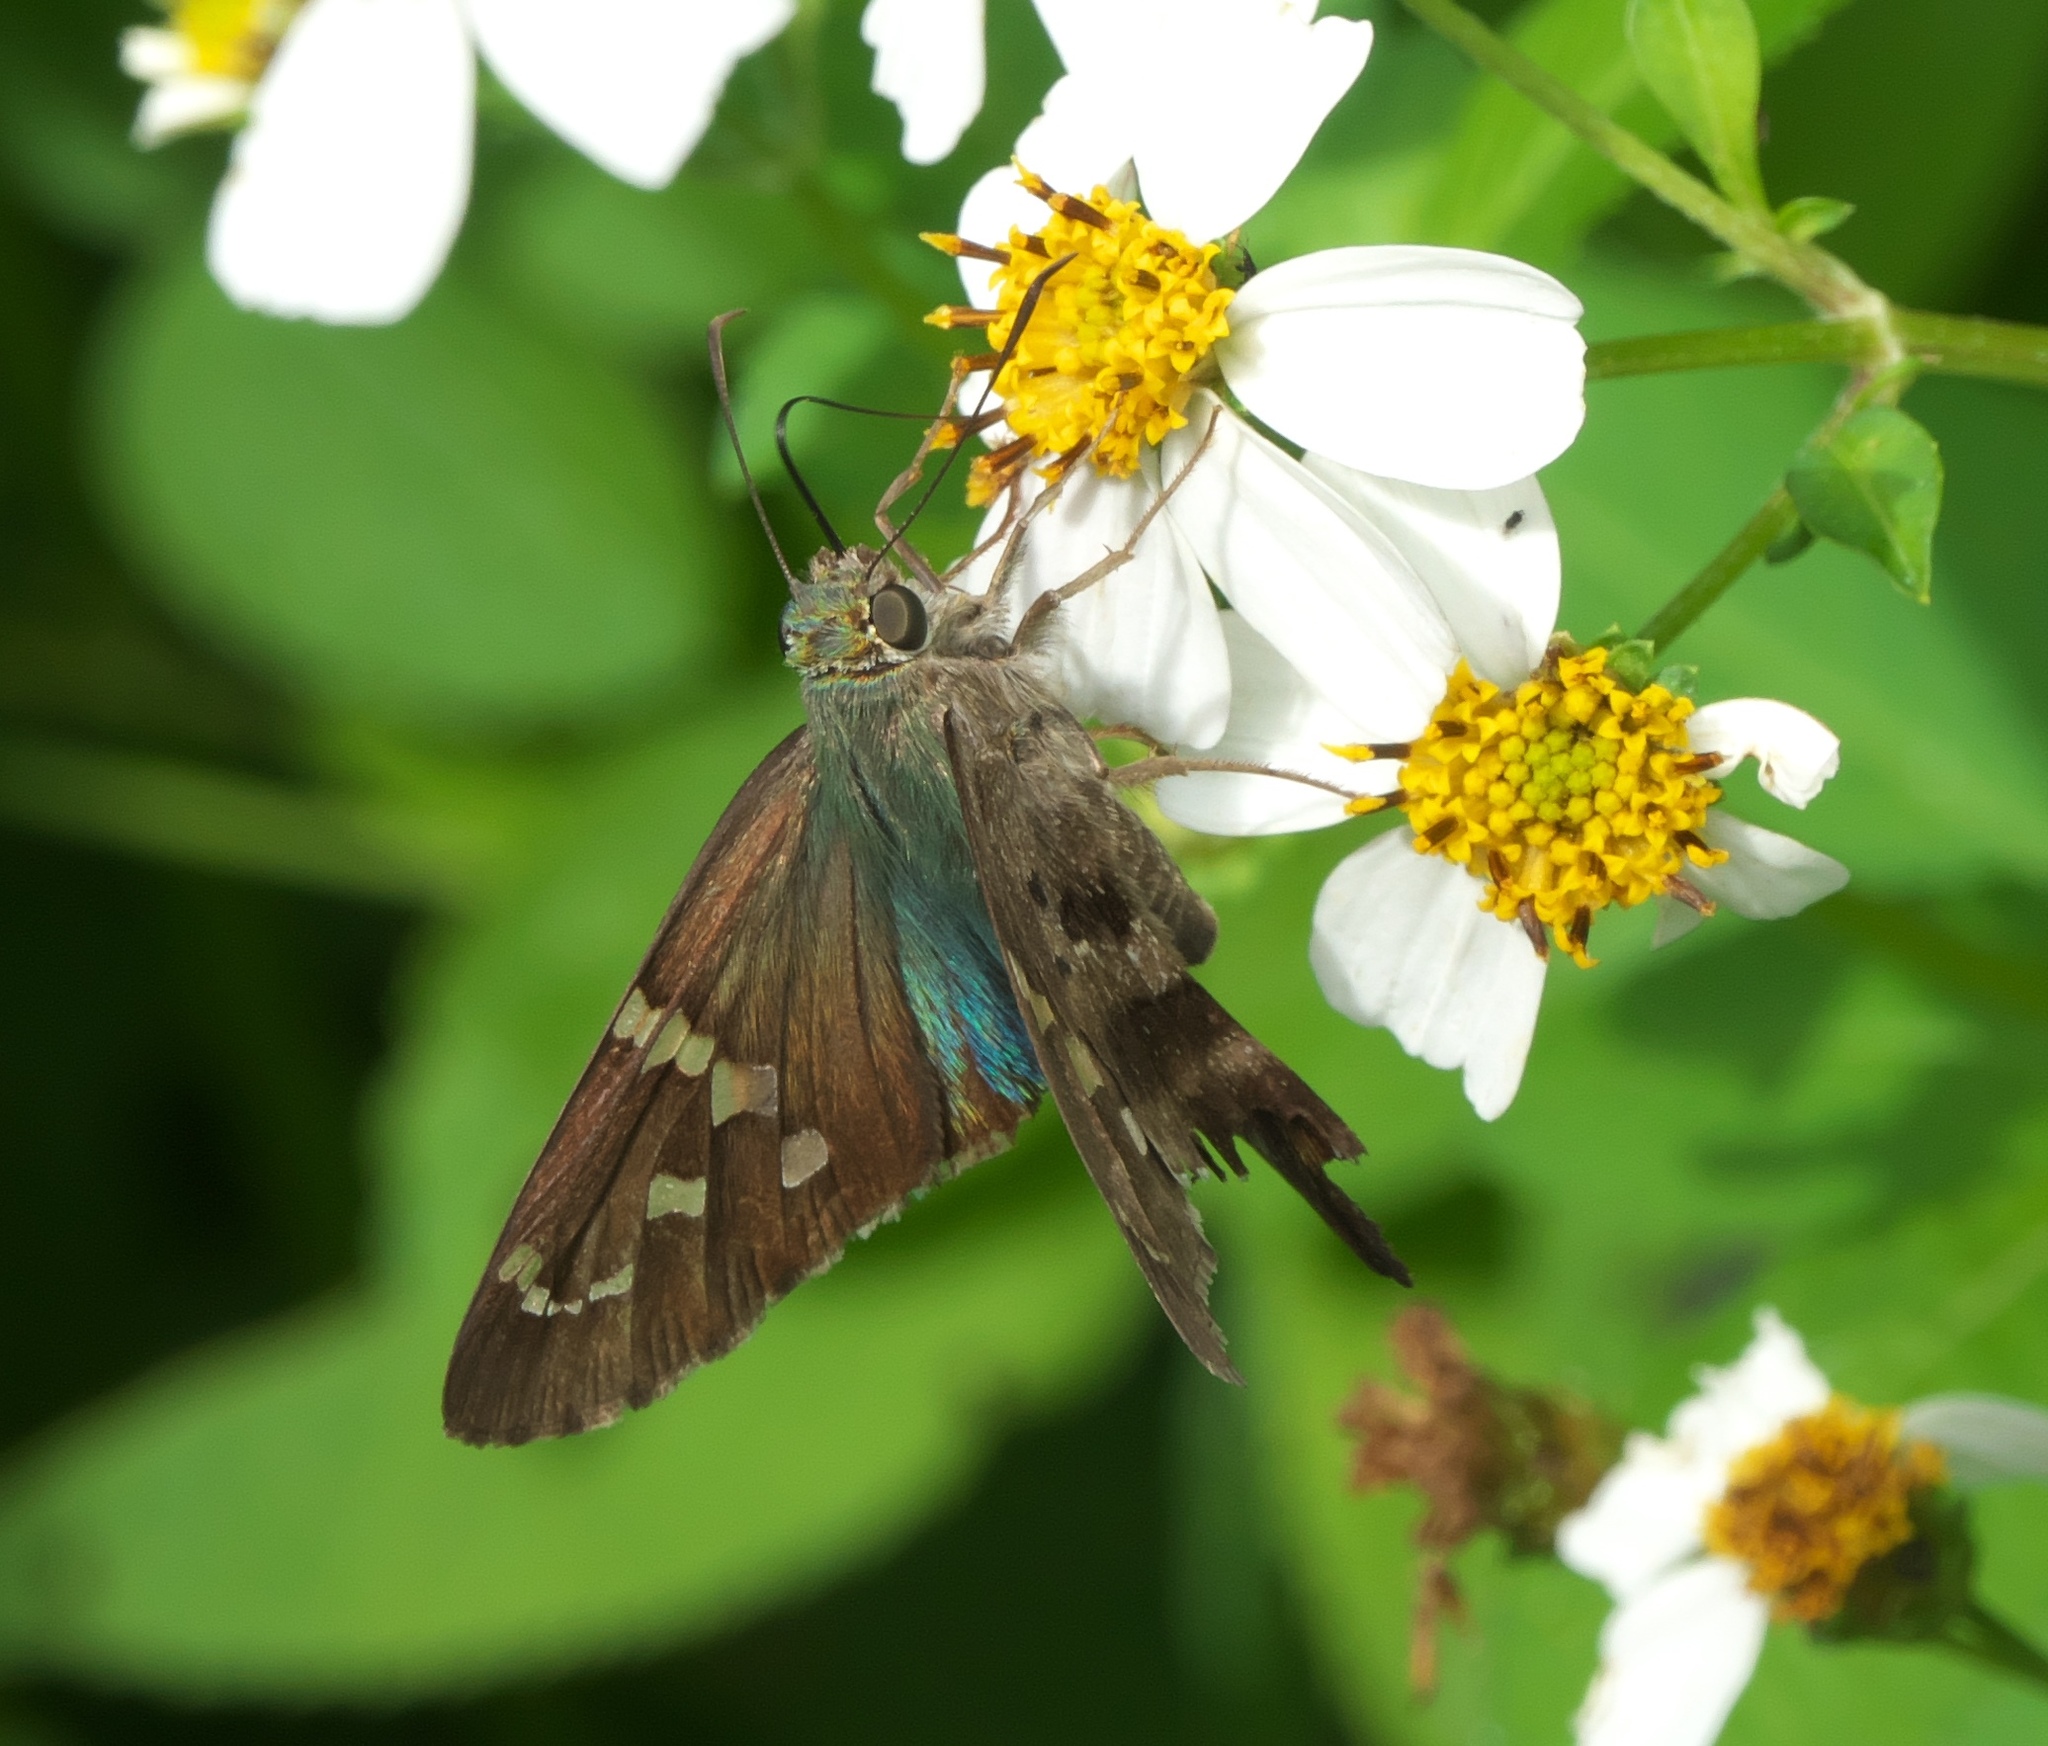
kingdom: Animalia
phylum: Arthropoda
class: Insecta
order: Lepidoptera
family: Hesperiidae
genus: Urbanus
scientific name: Urbanus proteus
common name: Long-tailed skipper
